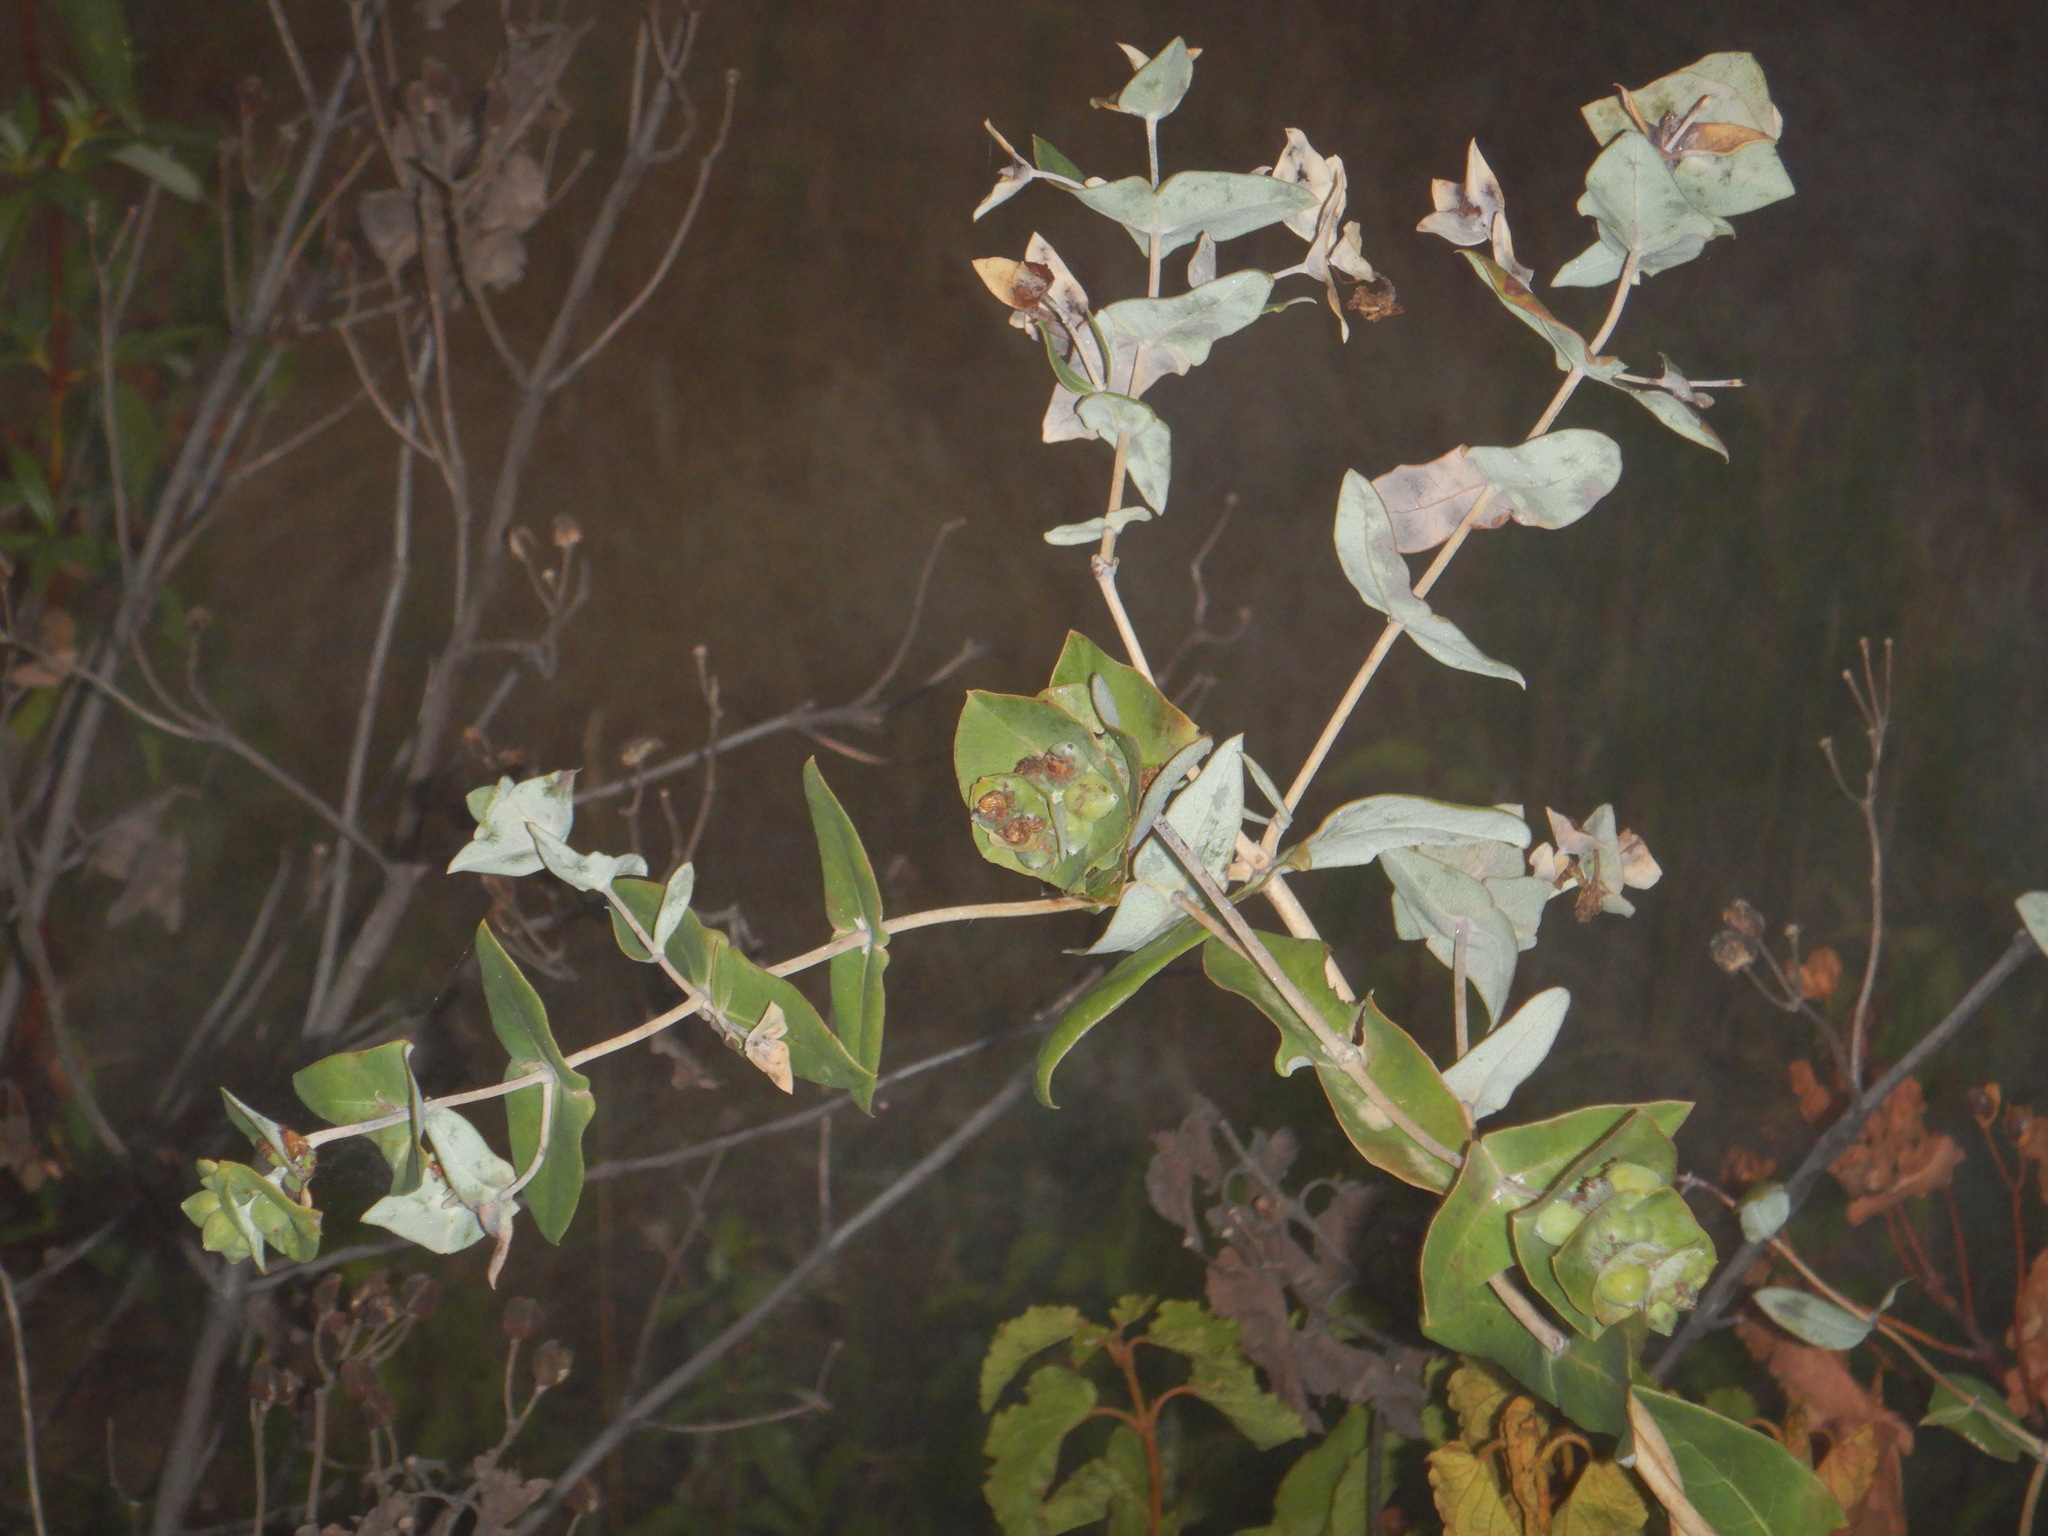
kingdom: Plantae
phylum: Tracheophyta
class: Magnoliopsida
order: Dipsacales
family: Caprifoliaceae
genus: Lonicera
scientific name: Lonicera implexa
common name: Minorca honeysuckle
